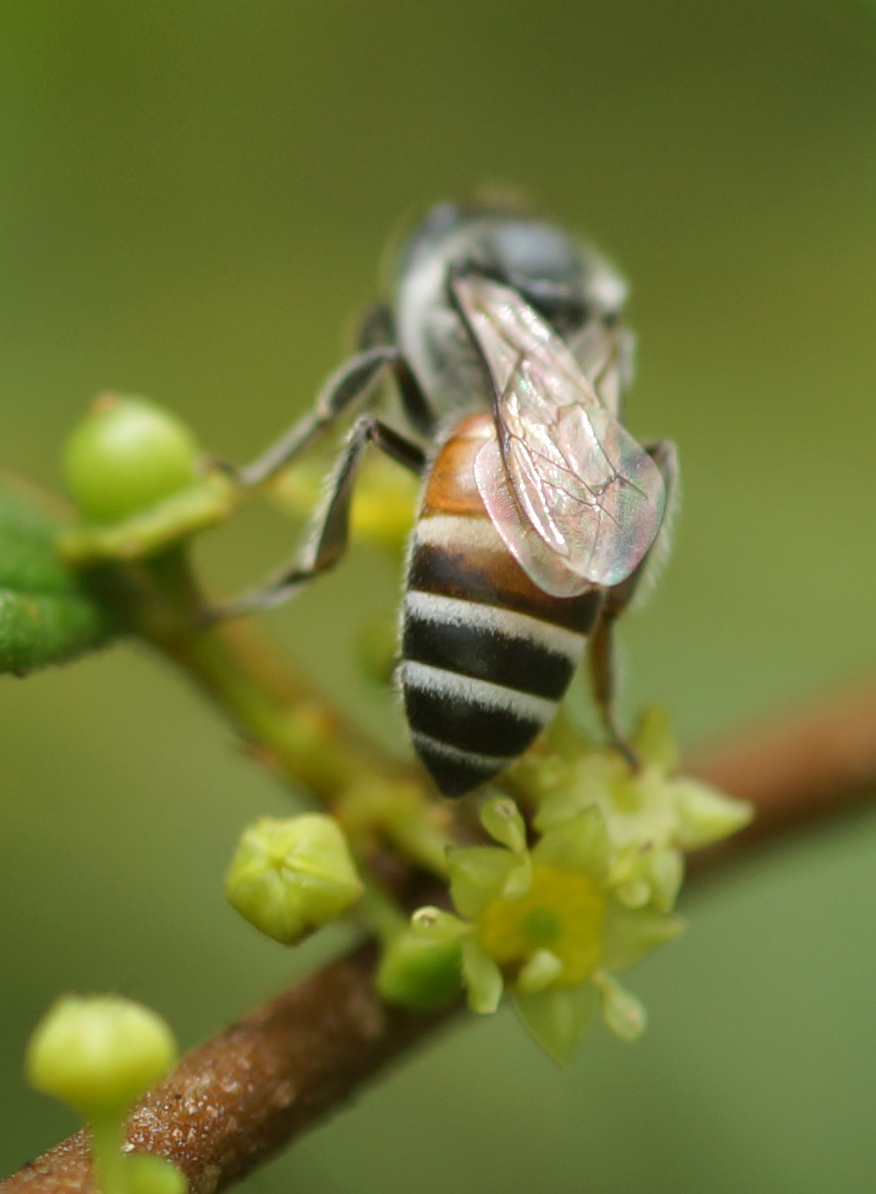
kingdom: Animalia
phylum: Arthropoda
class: Insecta
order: Hymenoptera
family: Apidae
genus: Apis
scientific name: Apis florea
